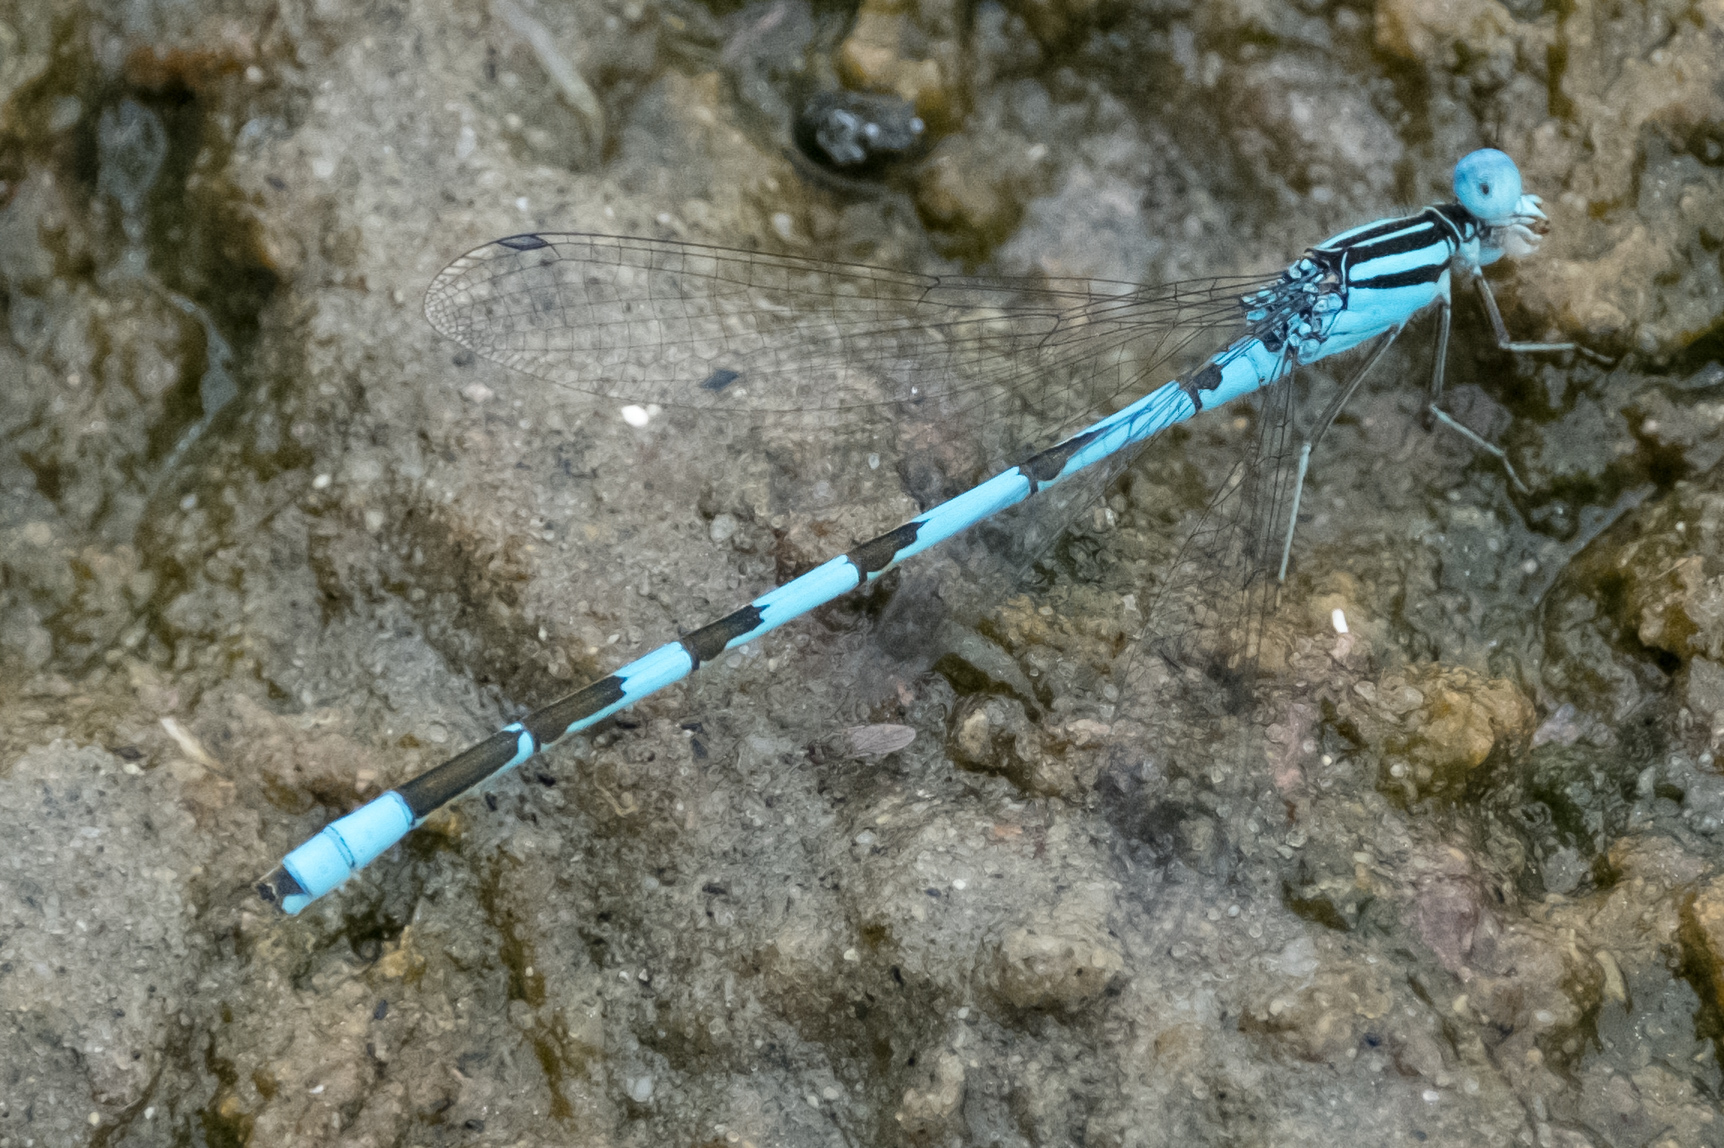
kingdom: Animalia
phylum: Arthropoda
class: Insecta
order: Odonata
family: Coenagrionidae
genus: Enallagma
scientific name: Enallagma durum
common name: Big bluet
